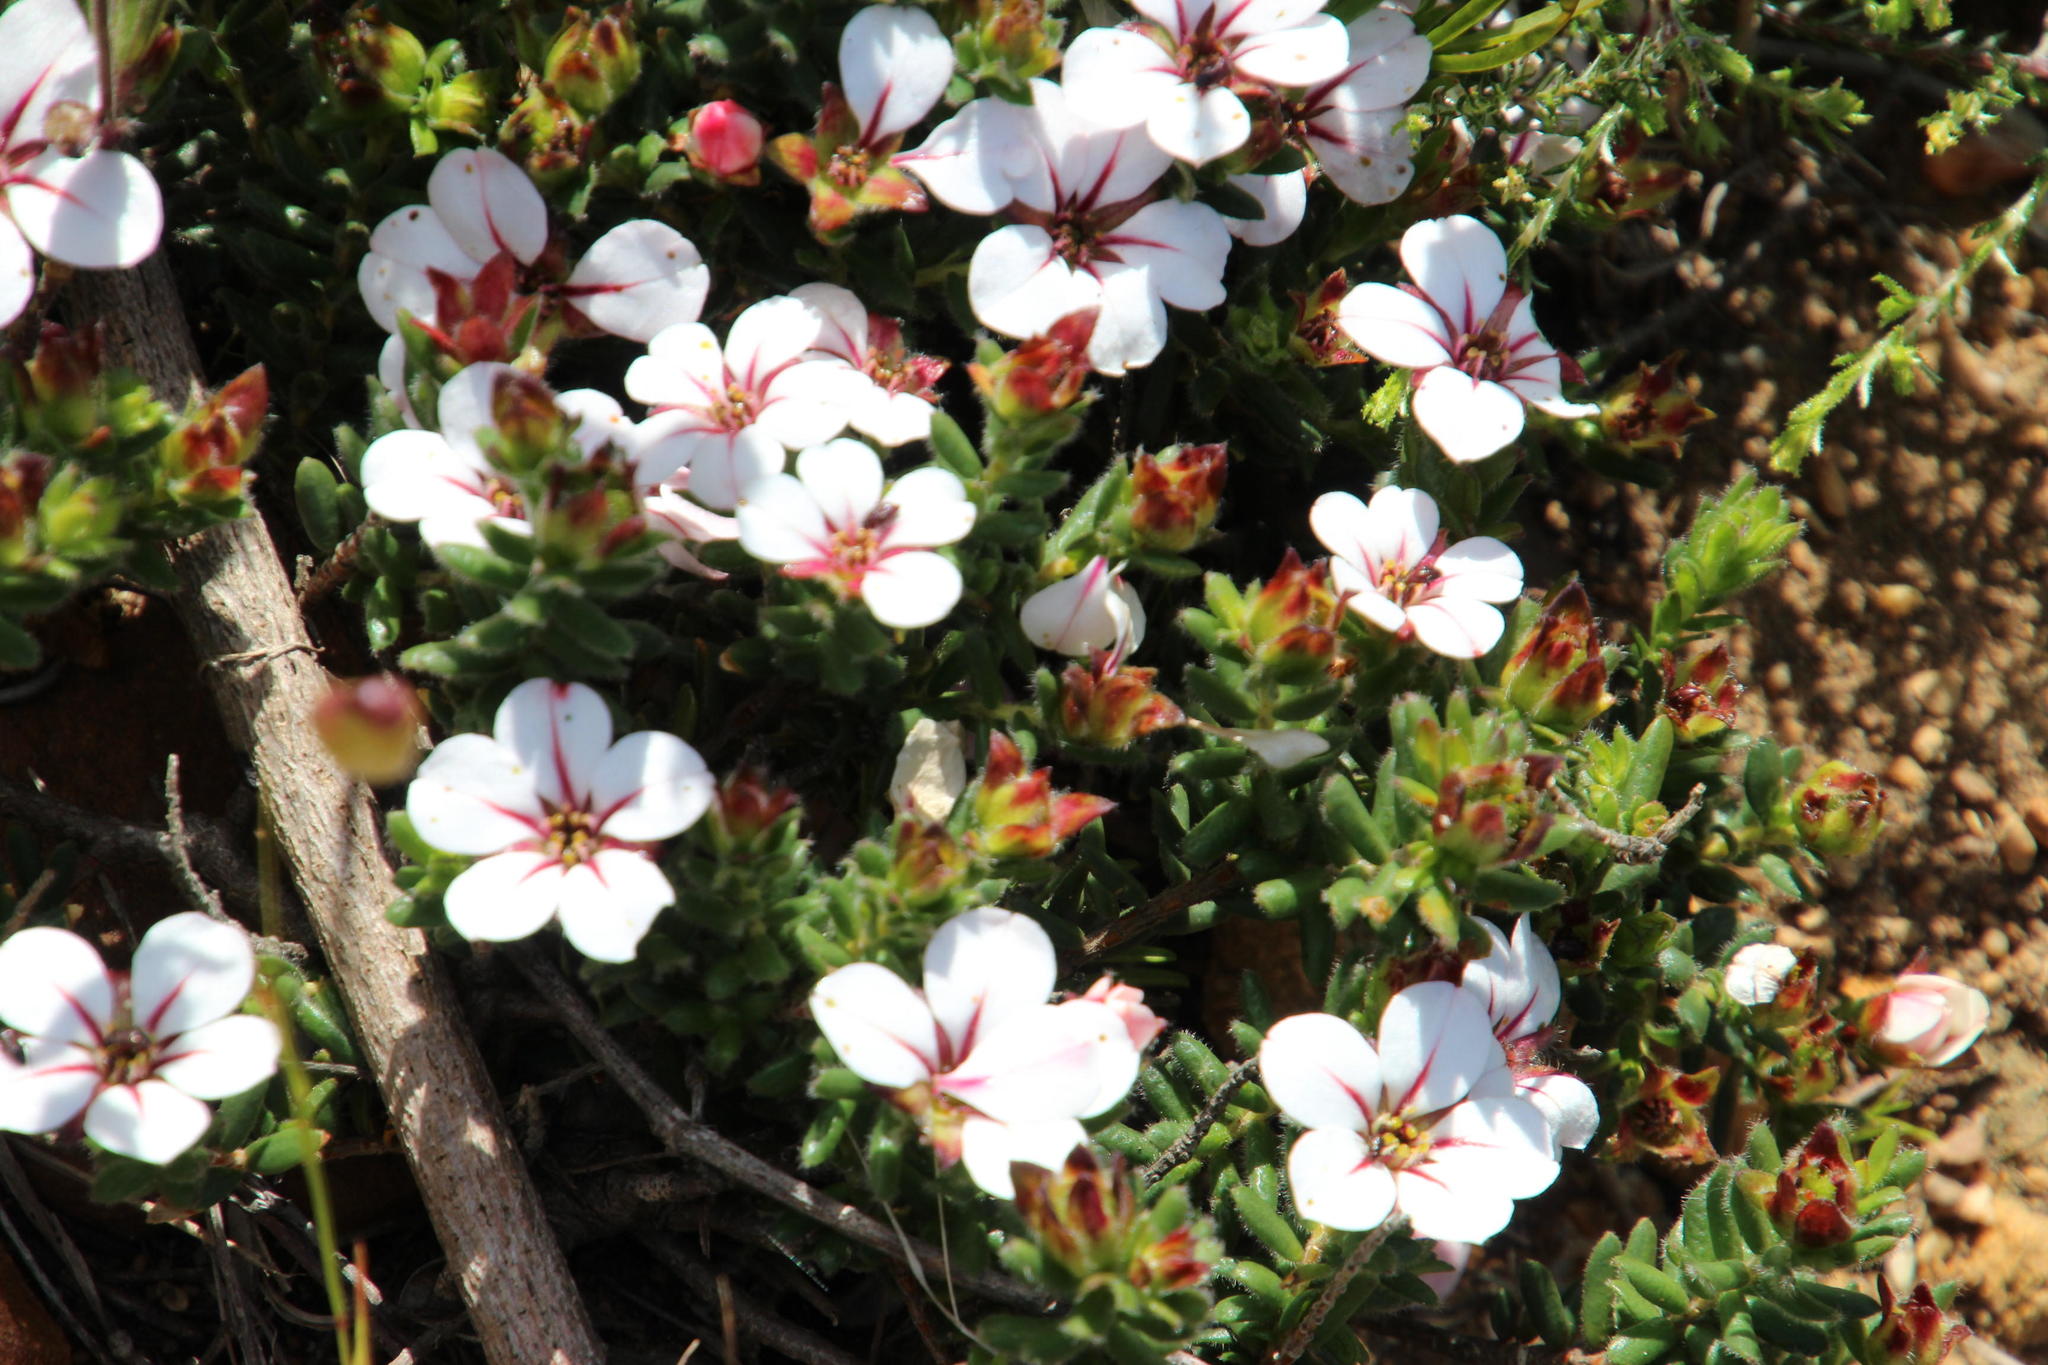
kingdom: Plantae
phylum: Tracheophyta
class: Magnoliopsida
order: Sapindales
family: Rutaceae
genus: Adenandra
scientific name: Adenandra uniflora
